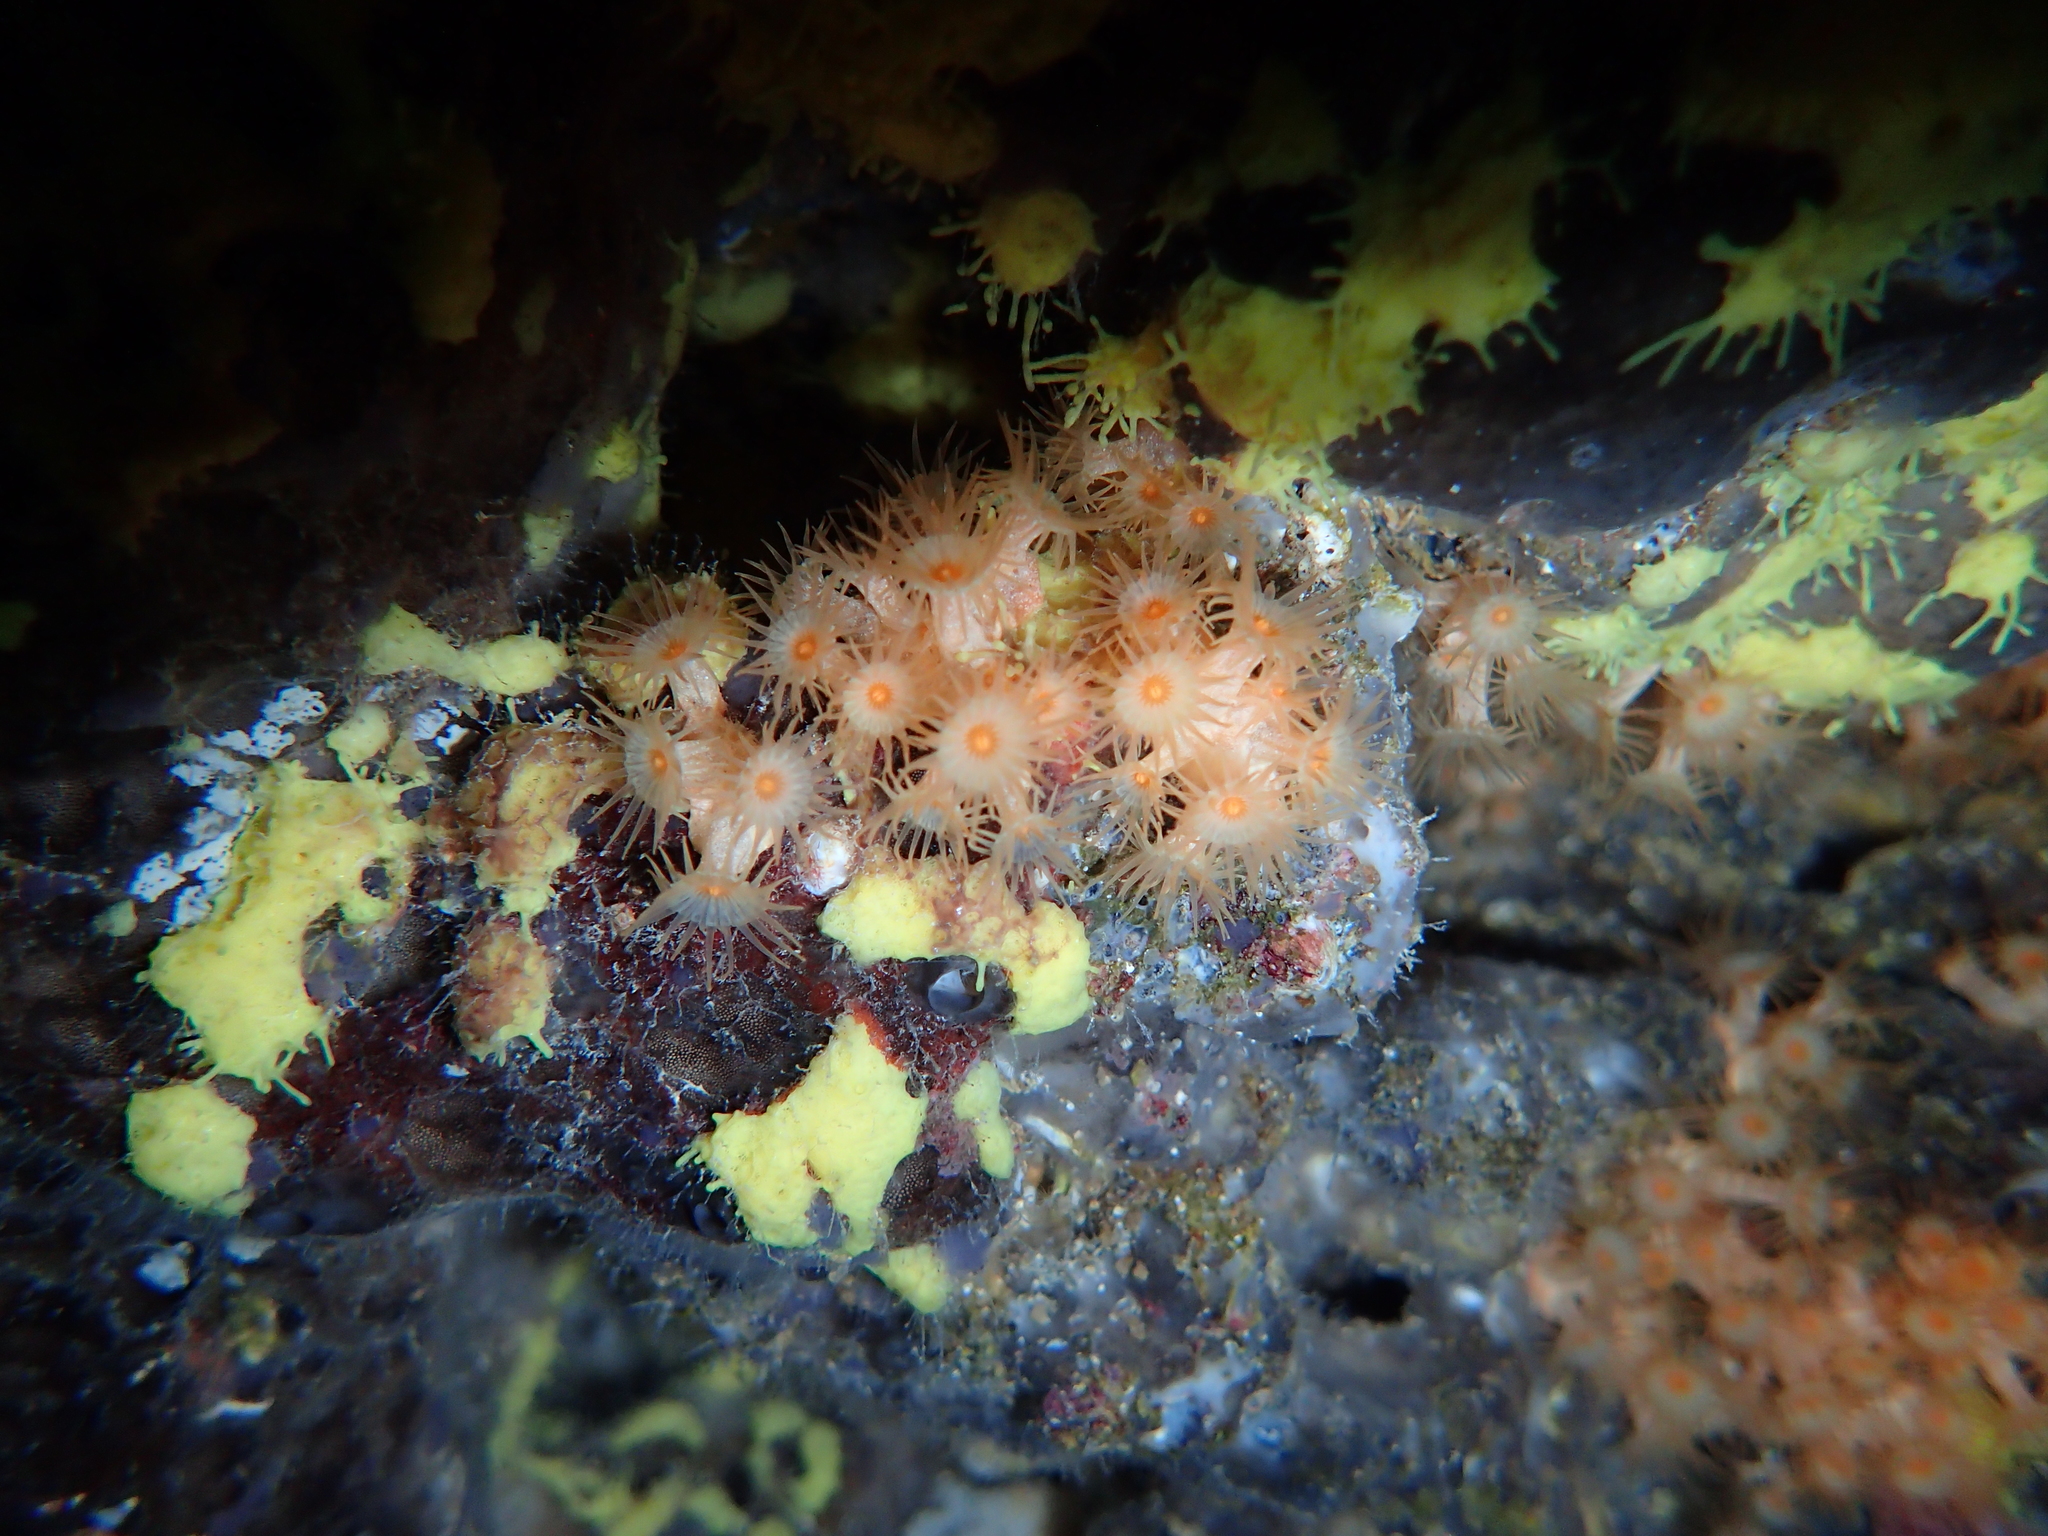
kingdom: Animalia
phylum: Cnidaria
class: Anthozoa
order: Zoantharia
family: Parazoanthidae
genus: Parazoanthus
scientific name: Parazoanthus axinellae
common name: Yellow cluster anemone
